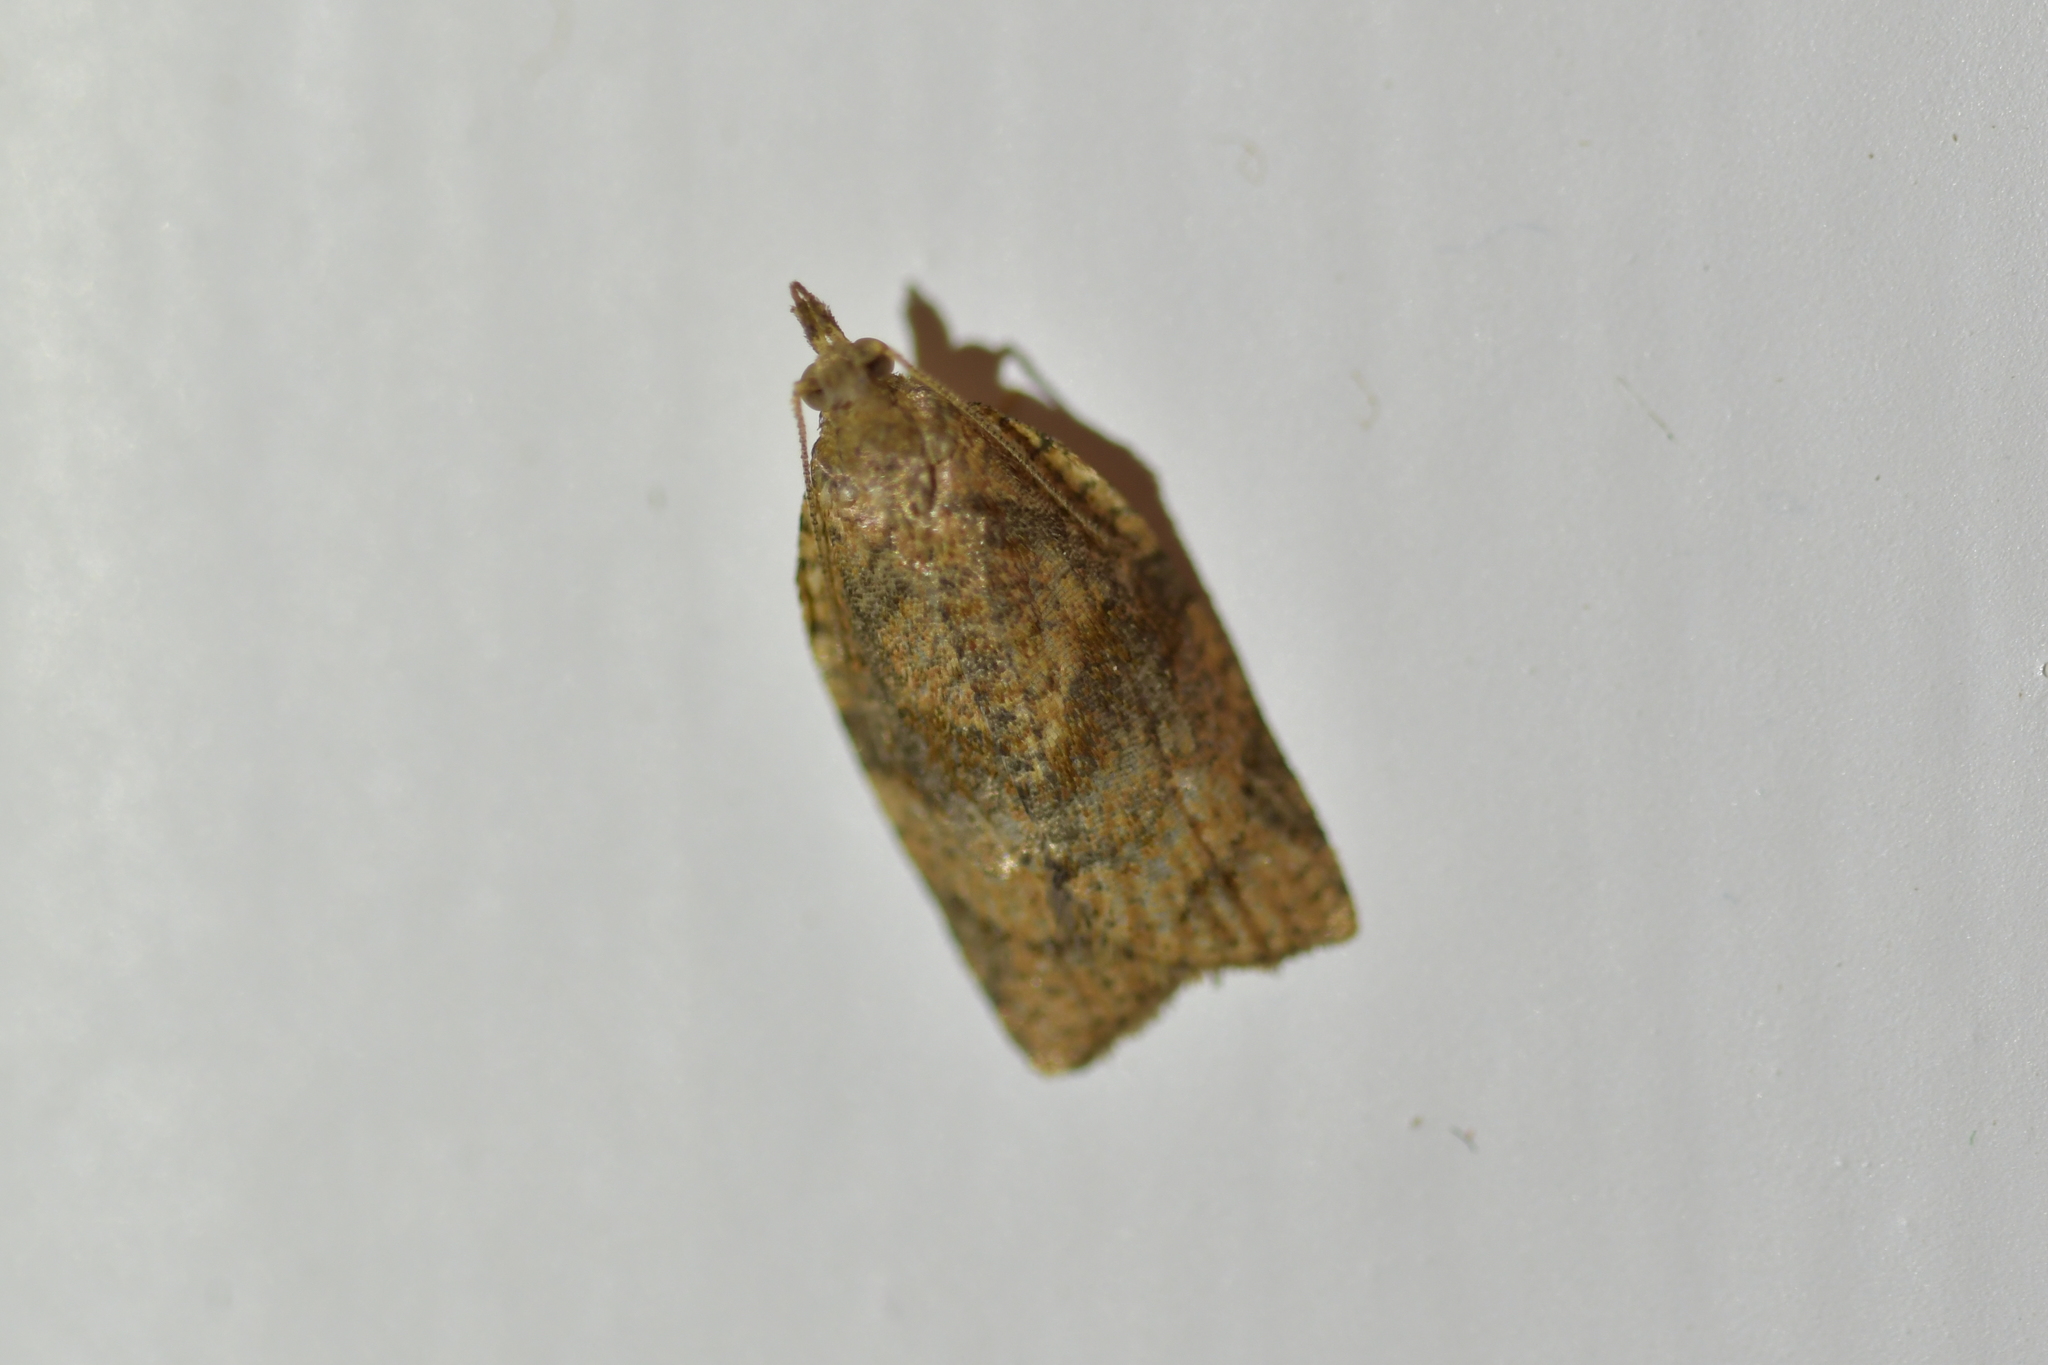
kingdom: Animalia
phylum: Arthropoda
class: Insecta
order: Lepidoptera
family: Tortricidae
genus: Epiphyas
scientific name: Epiphyas postvittana
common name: Light brown apple moth
